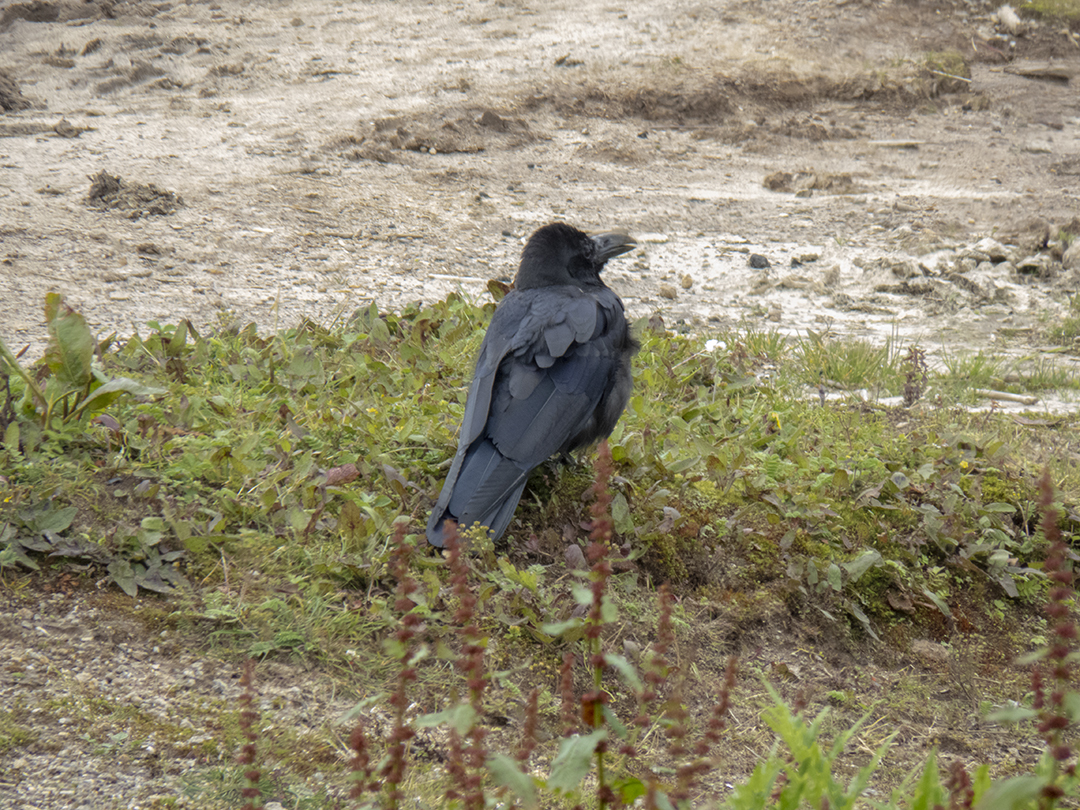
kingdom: Animalia
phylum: Chordata
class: Aves
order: Passeriformes
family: Corvidae
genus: Corvus
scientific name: Corvus macrorhynchos
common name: Large-billed crow
